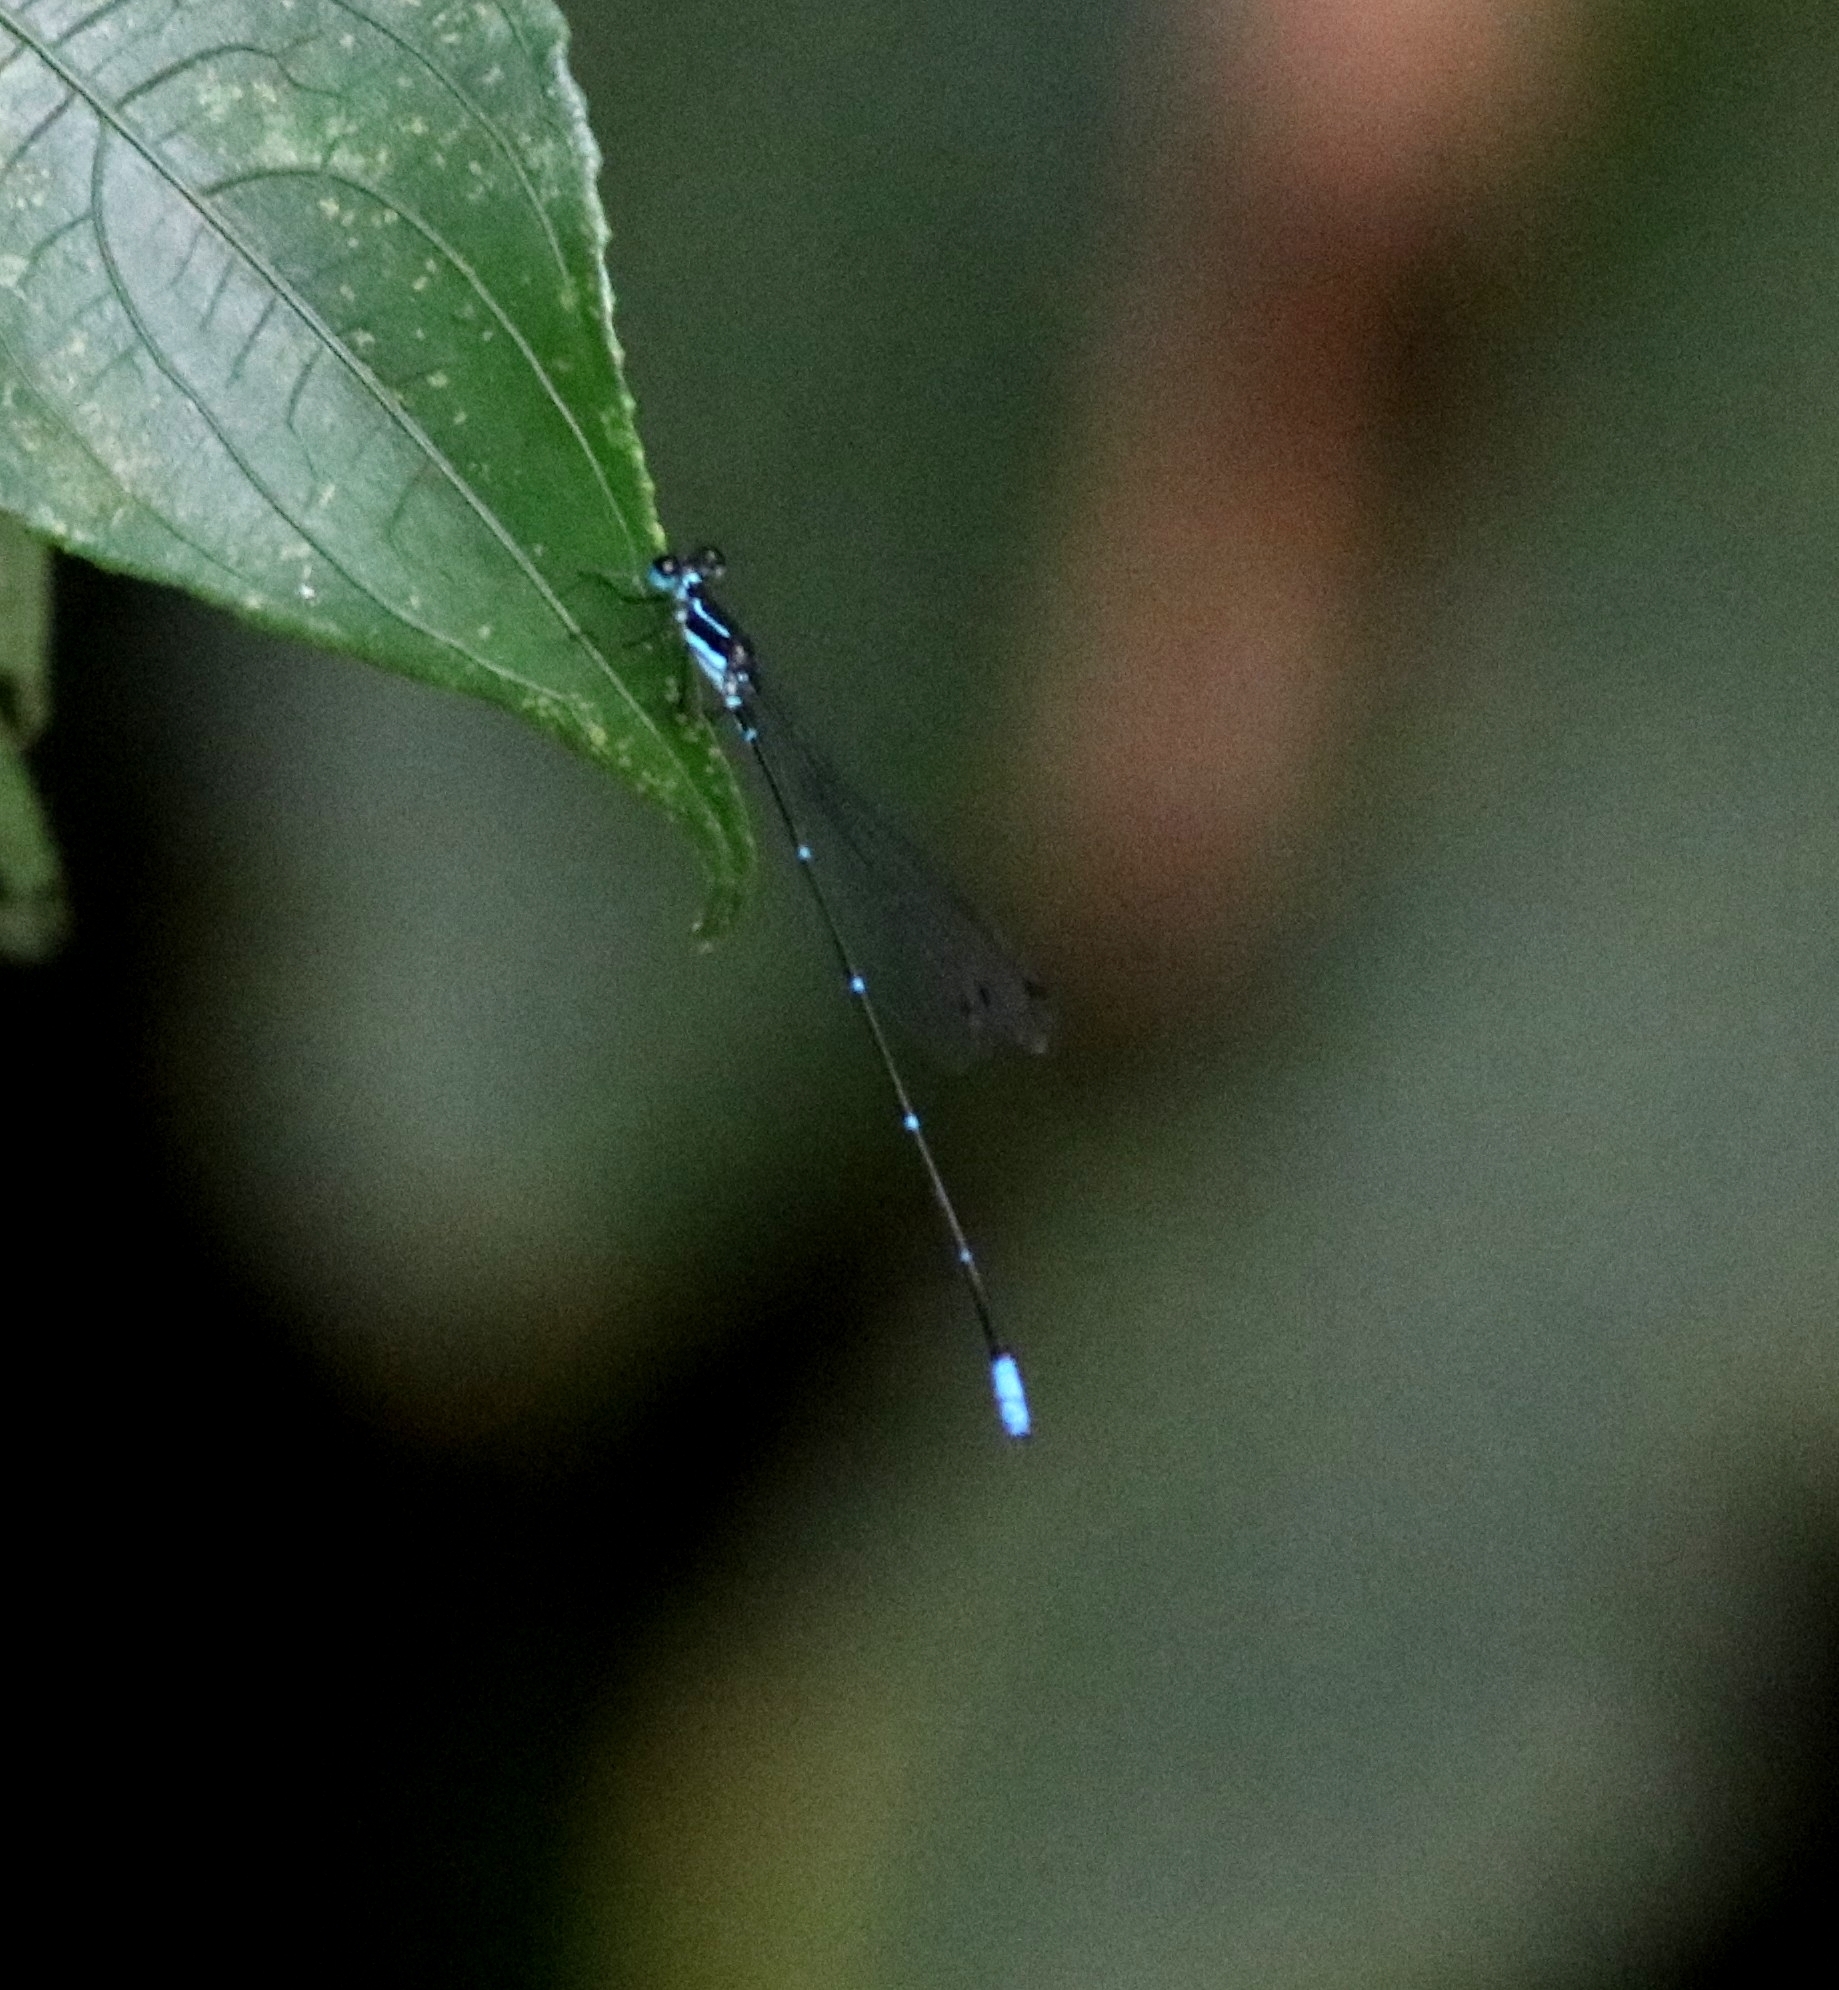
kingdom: Animalia
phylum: Arthropoda
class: Insecta
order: Odonata
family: Platycnemididae
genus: Caconeura
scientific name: Caconeura ramburi
